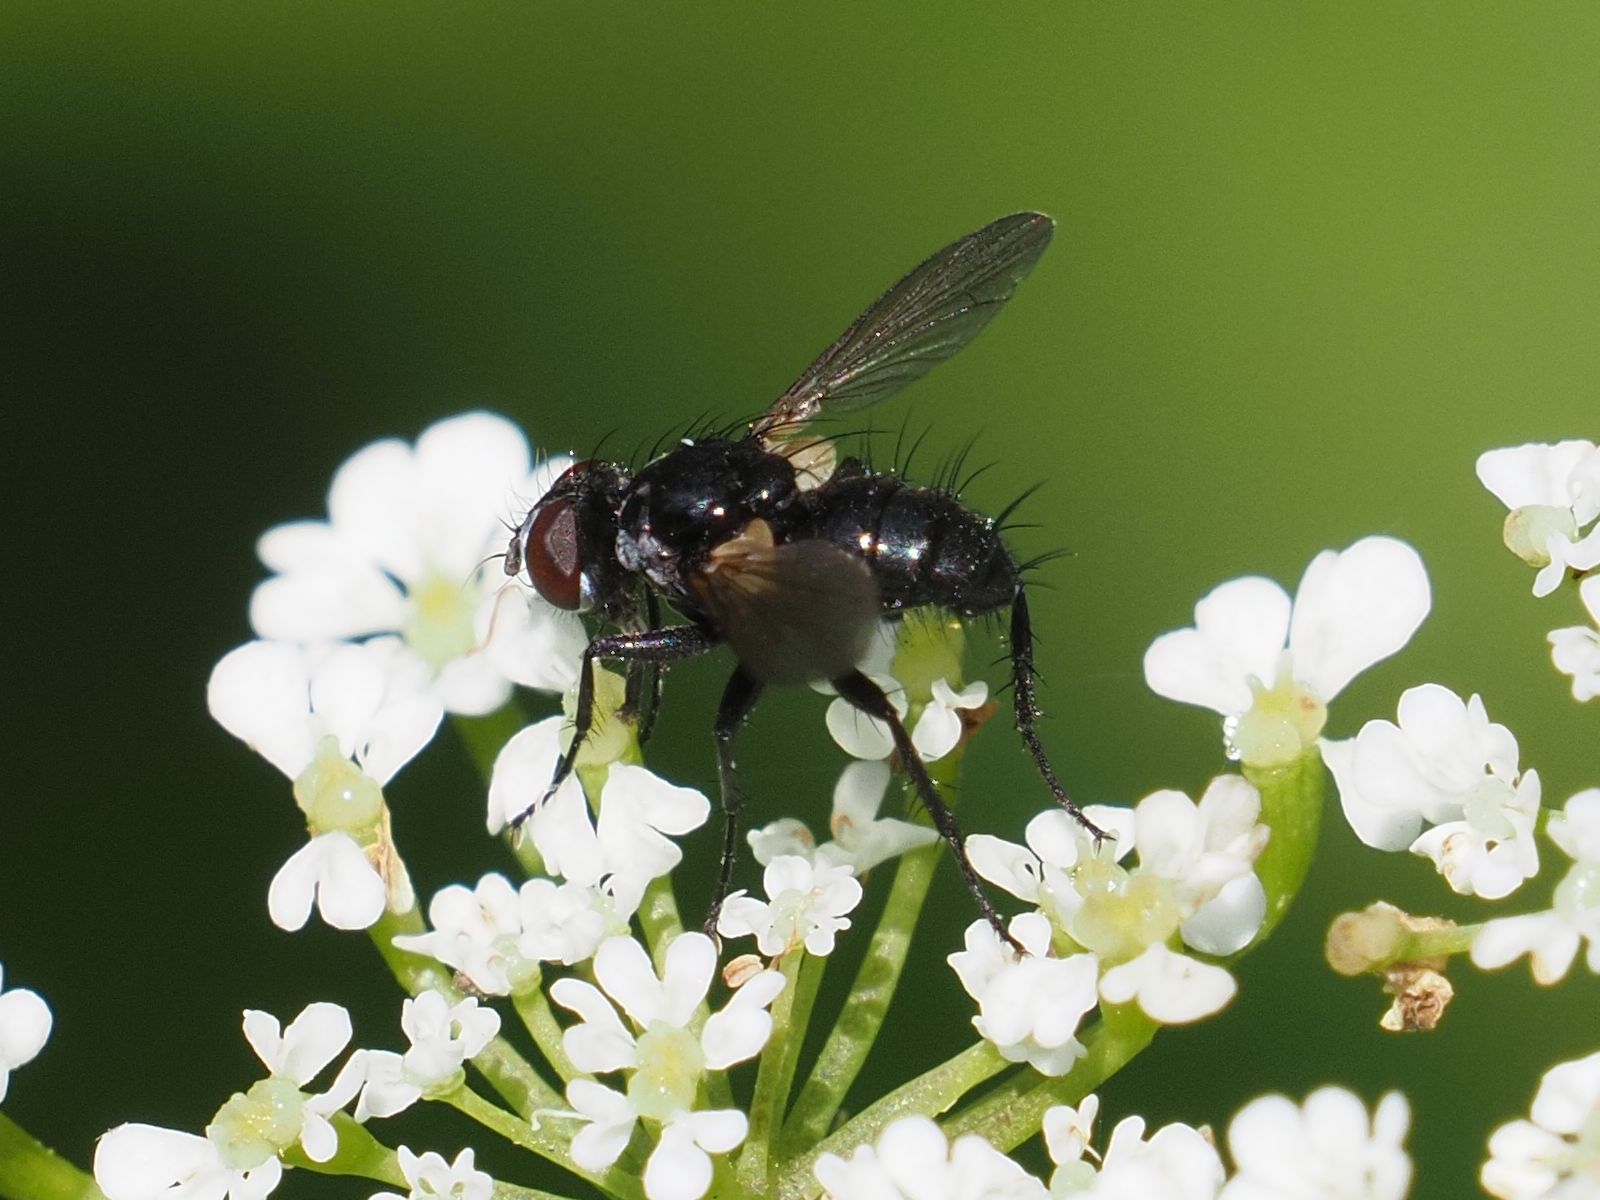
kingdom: Animalia
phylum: Arthropoda
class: Insecta
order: Diptera
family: Tachinidae
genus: Phania
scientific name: Phania funesta
